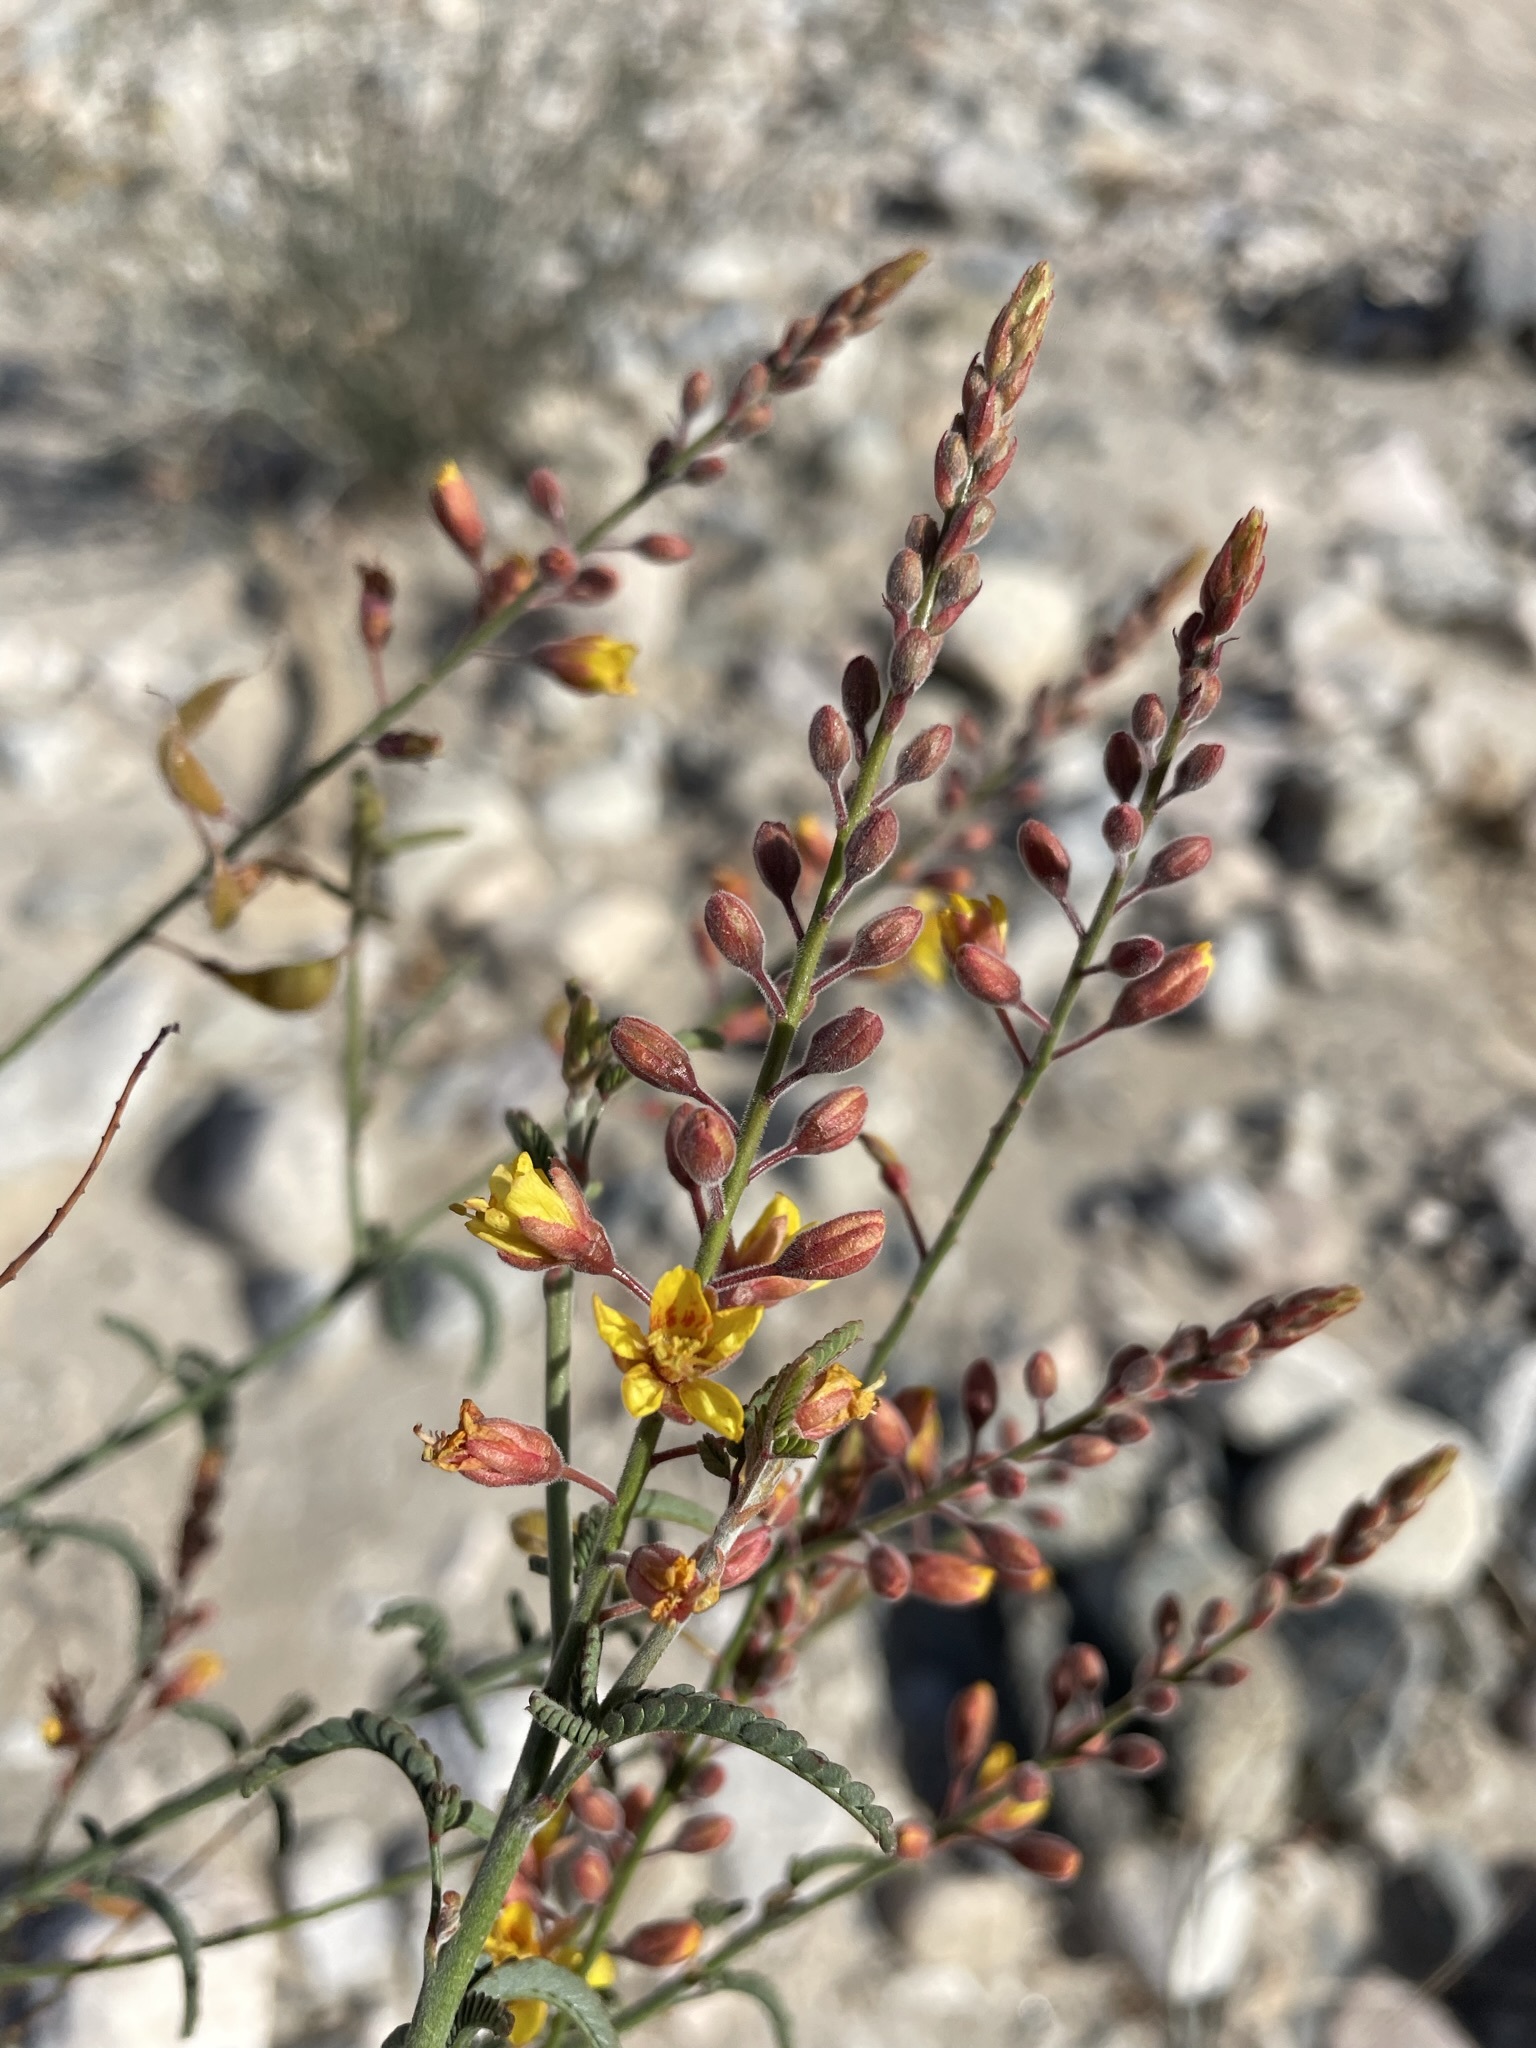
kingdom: Plantae
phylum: Tracheophyta
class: Magnoliopsida
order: Fabales
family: Fabaceae
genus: Hoffmannseggia
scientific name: Hoffmannseggia microphylla
